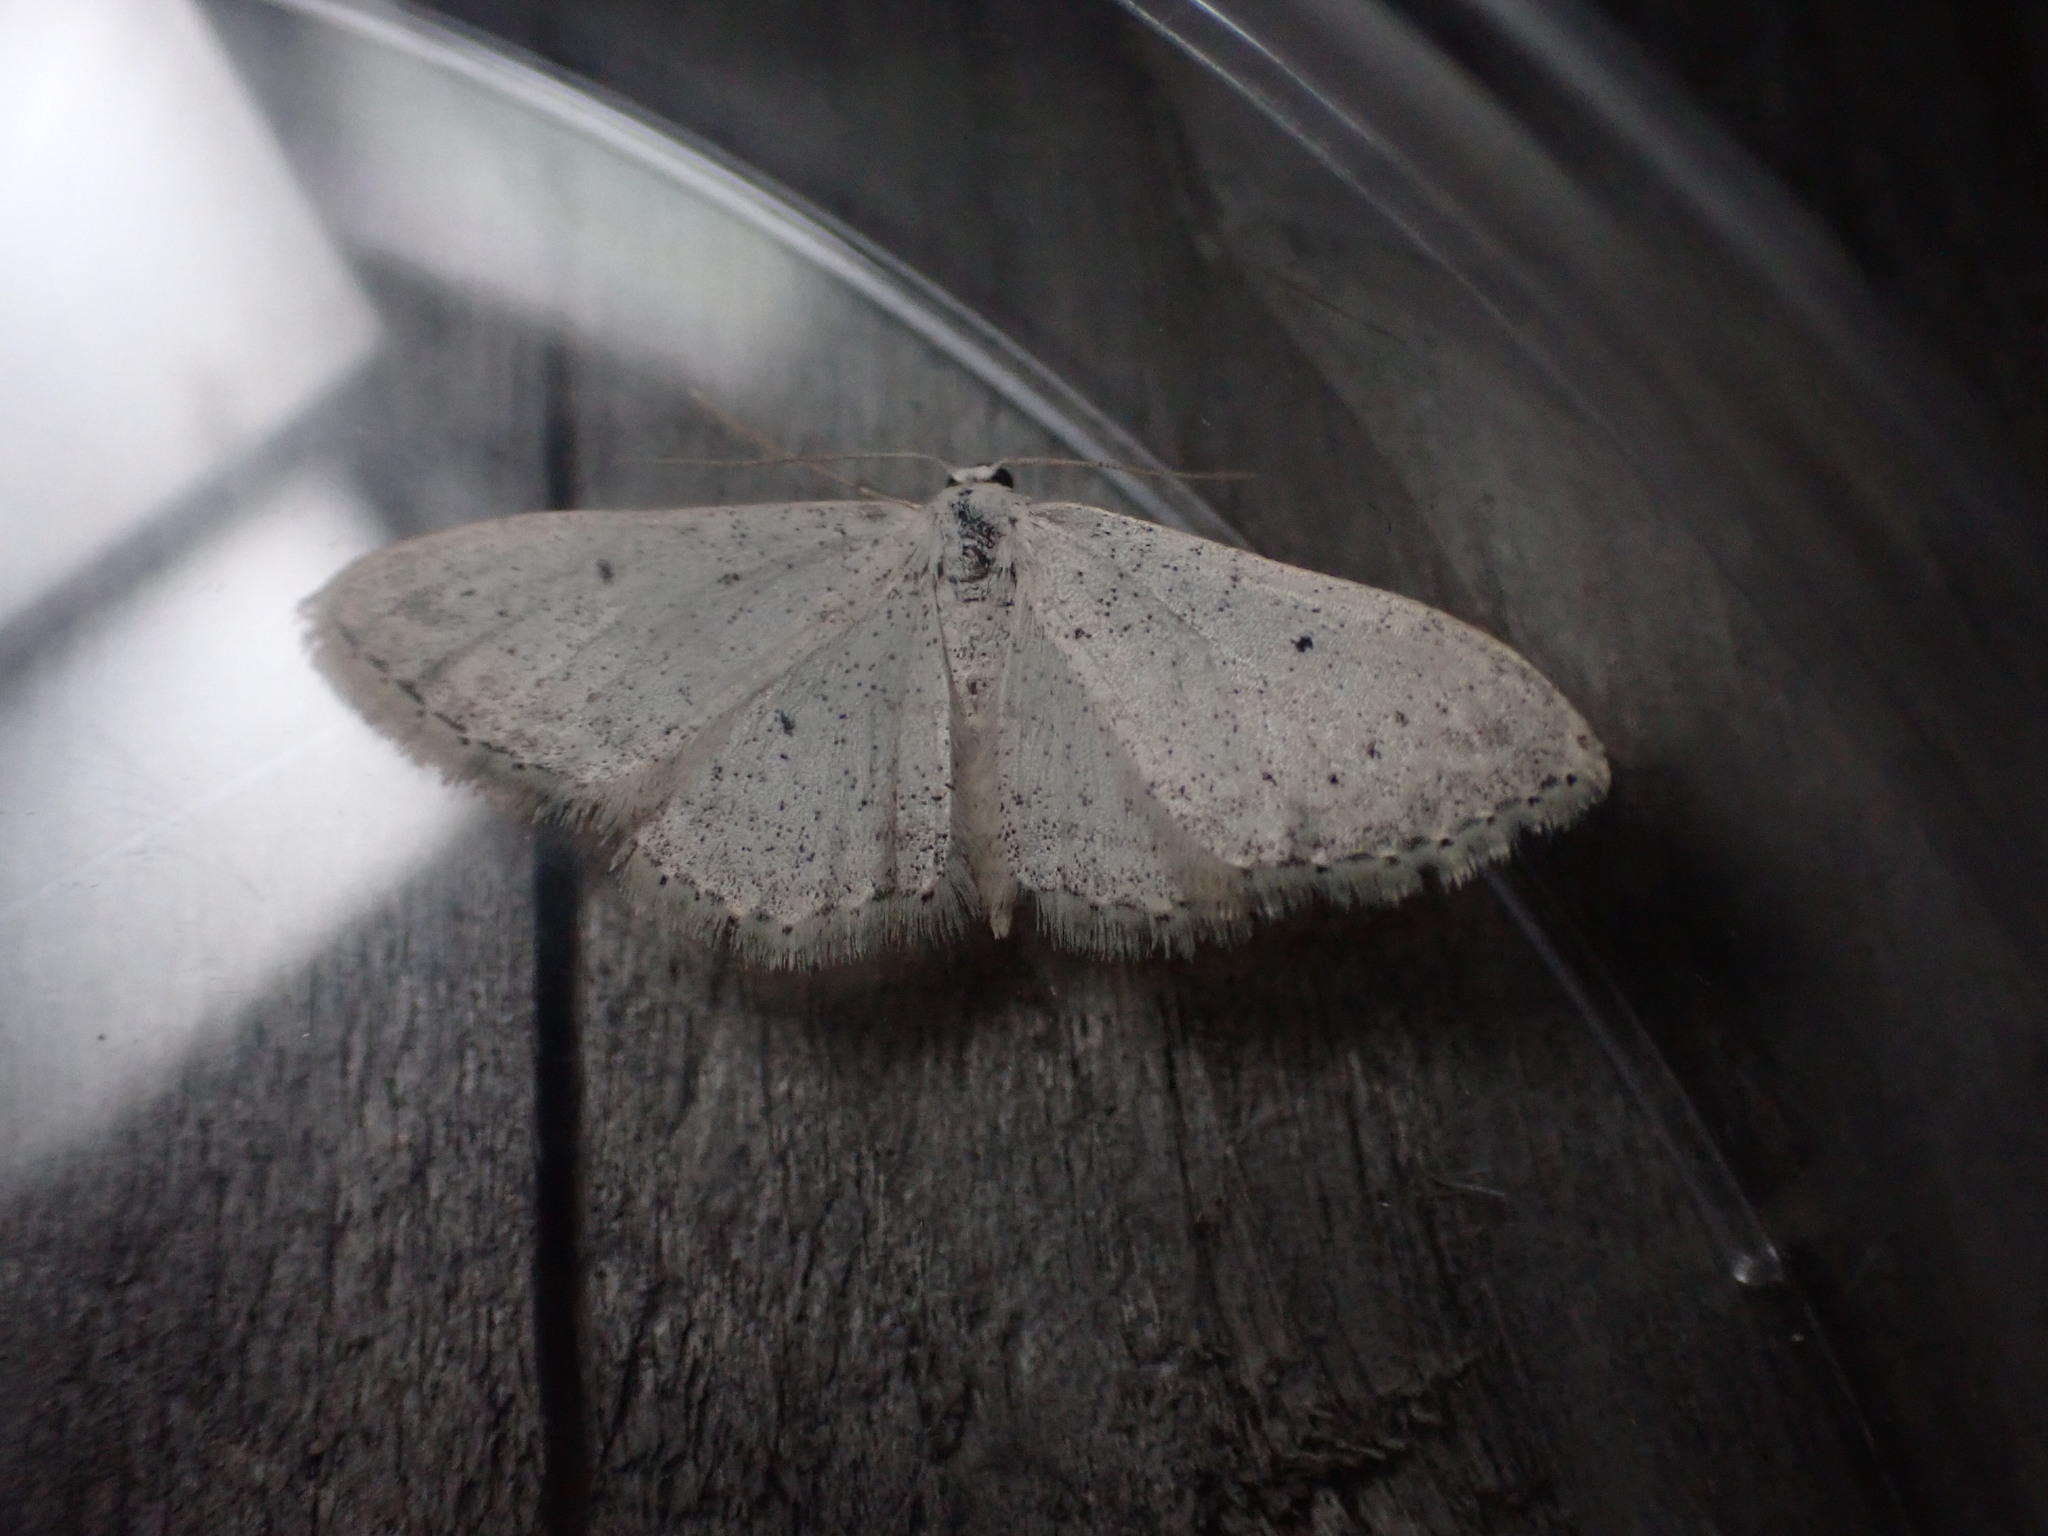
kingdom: Animalia
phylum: Arthropoda
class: Insecta
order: Lepidoptera
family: Geometridae
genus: Idaea
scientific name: Idaea seriata
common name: Small dusty wave
